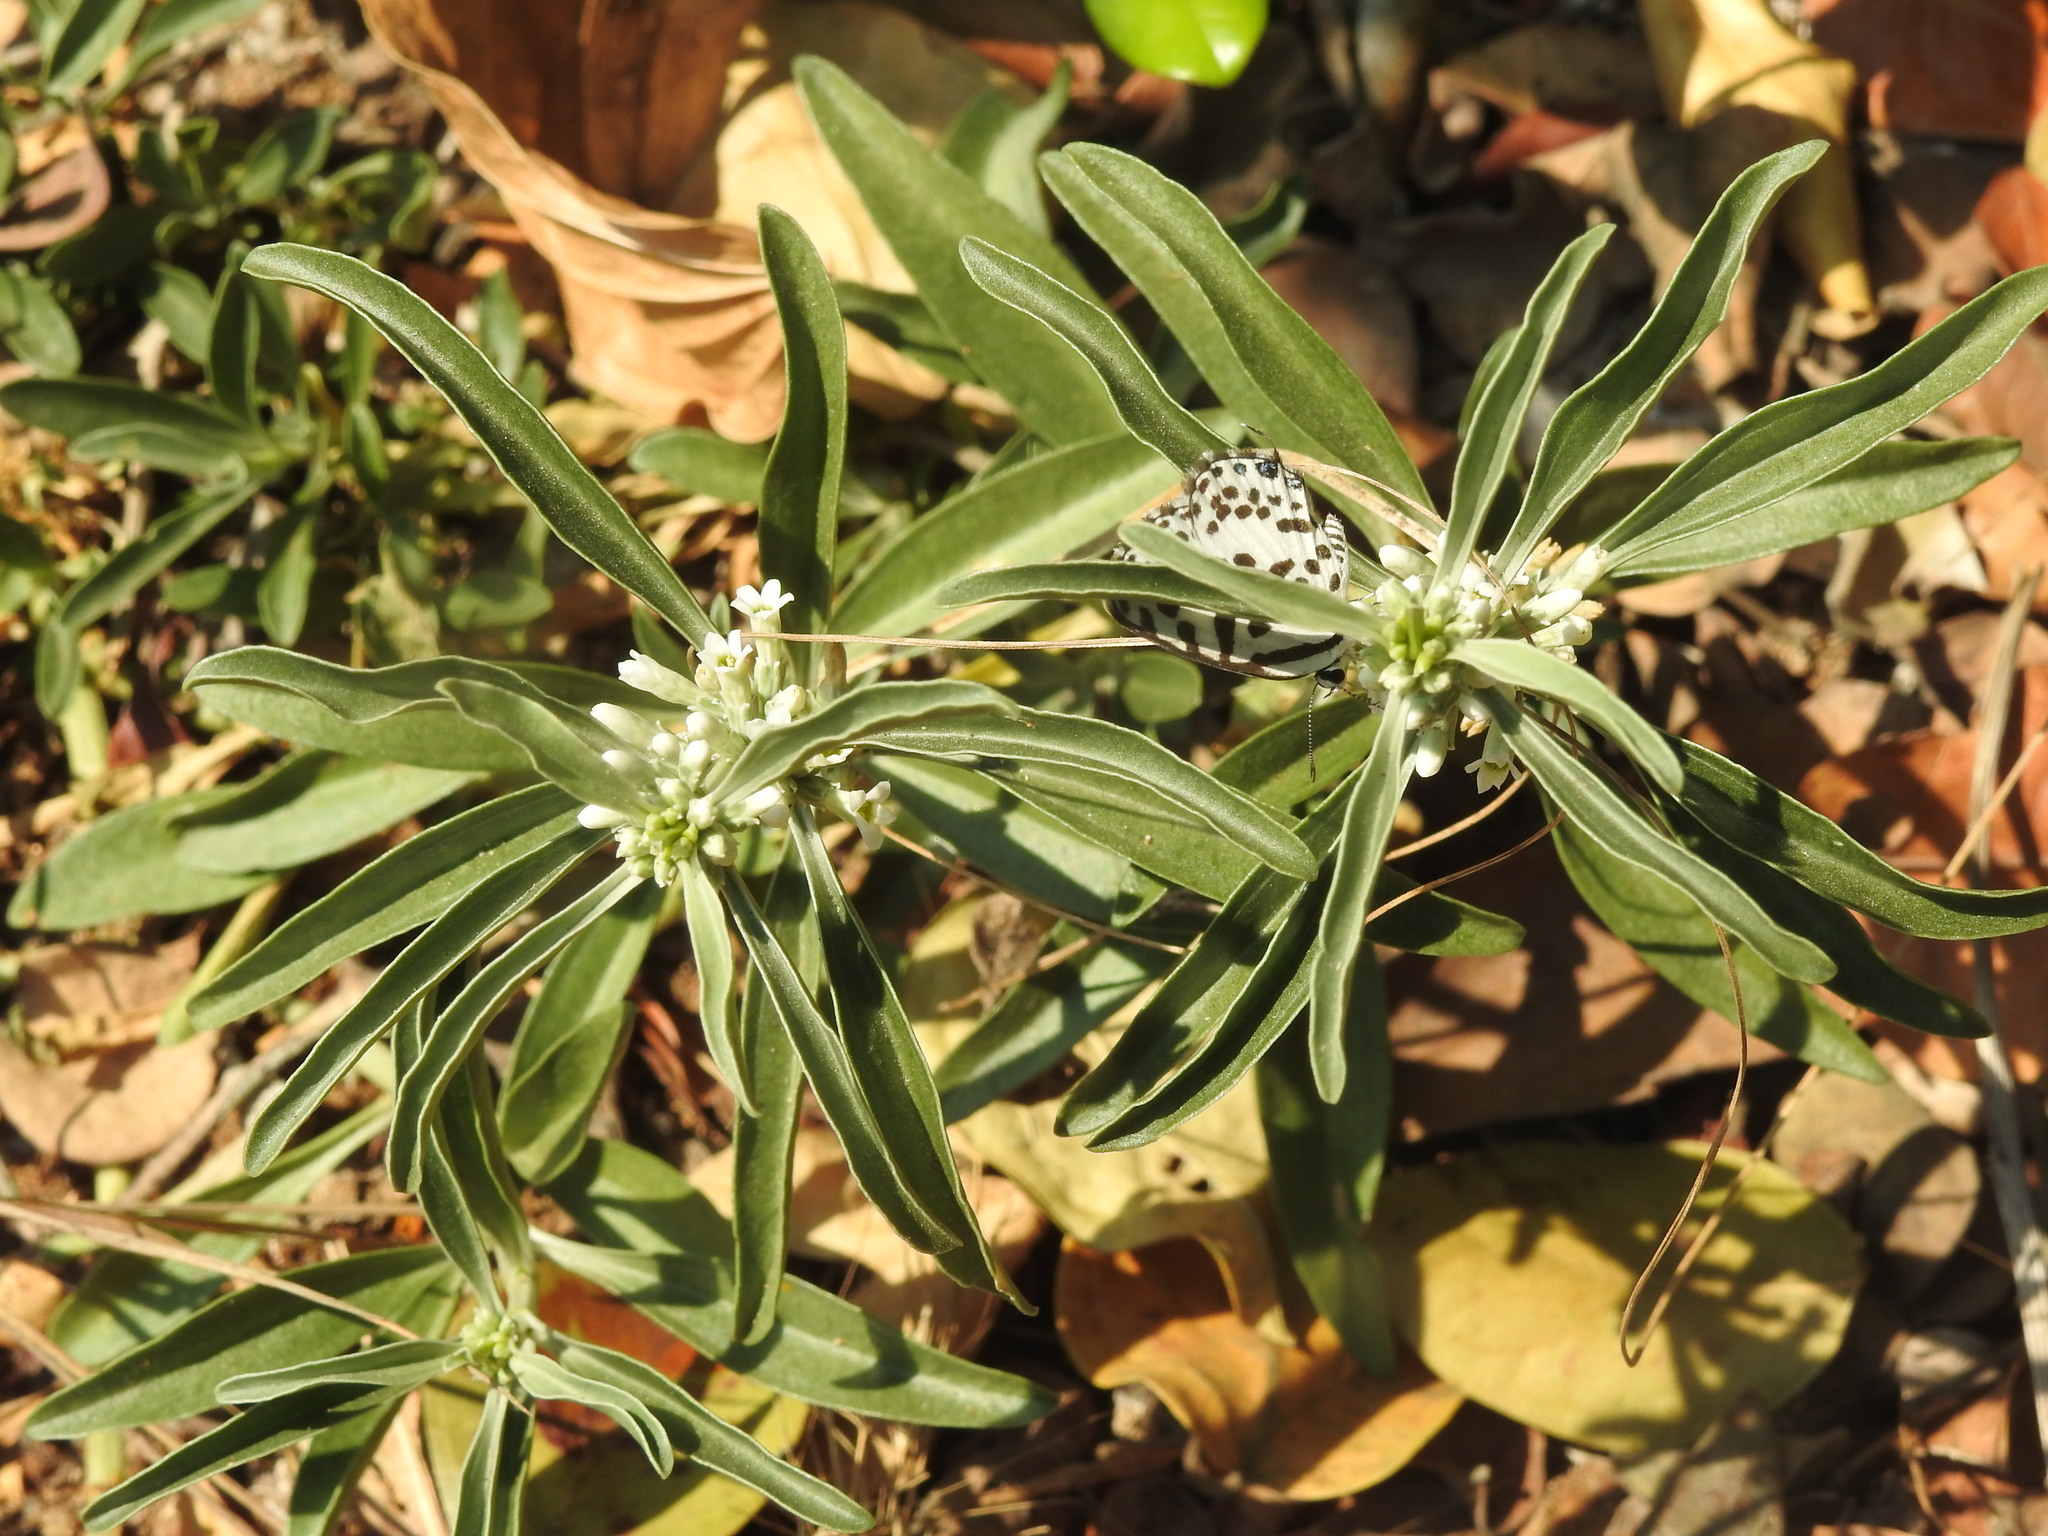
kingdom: Animalia
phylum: Arthropoda
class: Insecta
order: Lepidoptera
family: Lycaenidae
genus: Castalius
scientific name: Castalius rosimon
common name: Common pierrot
